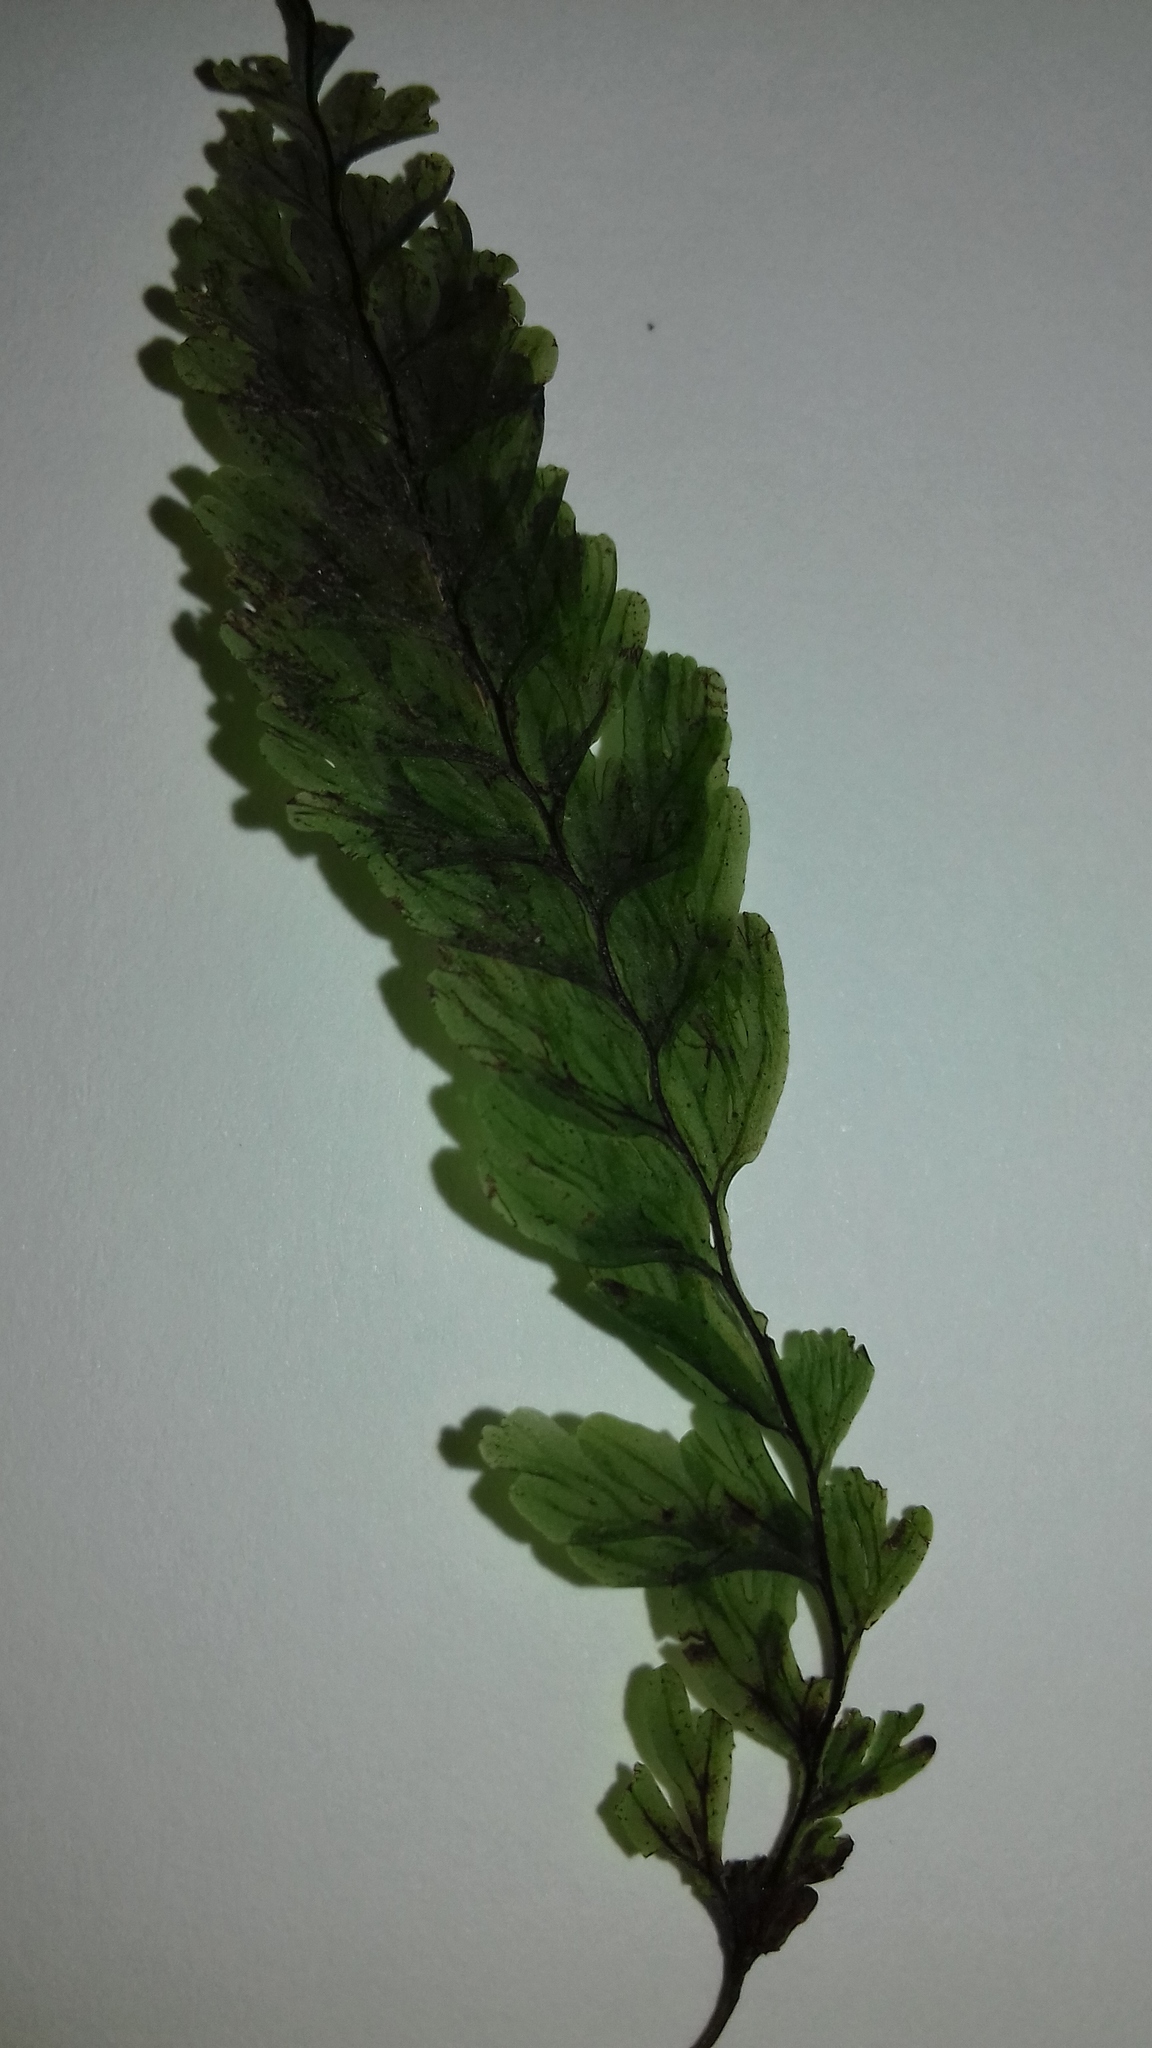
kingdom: Plantae
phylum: Tracheophyta
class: Polypodiopsida
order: Hymenophyllales
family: Hymenophyllaceae
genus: Hymenophyllum
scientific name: Hymenophyllum capense
